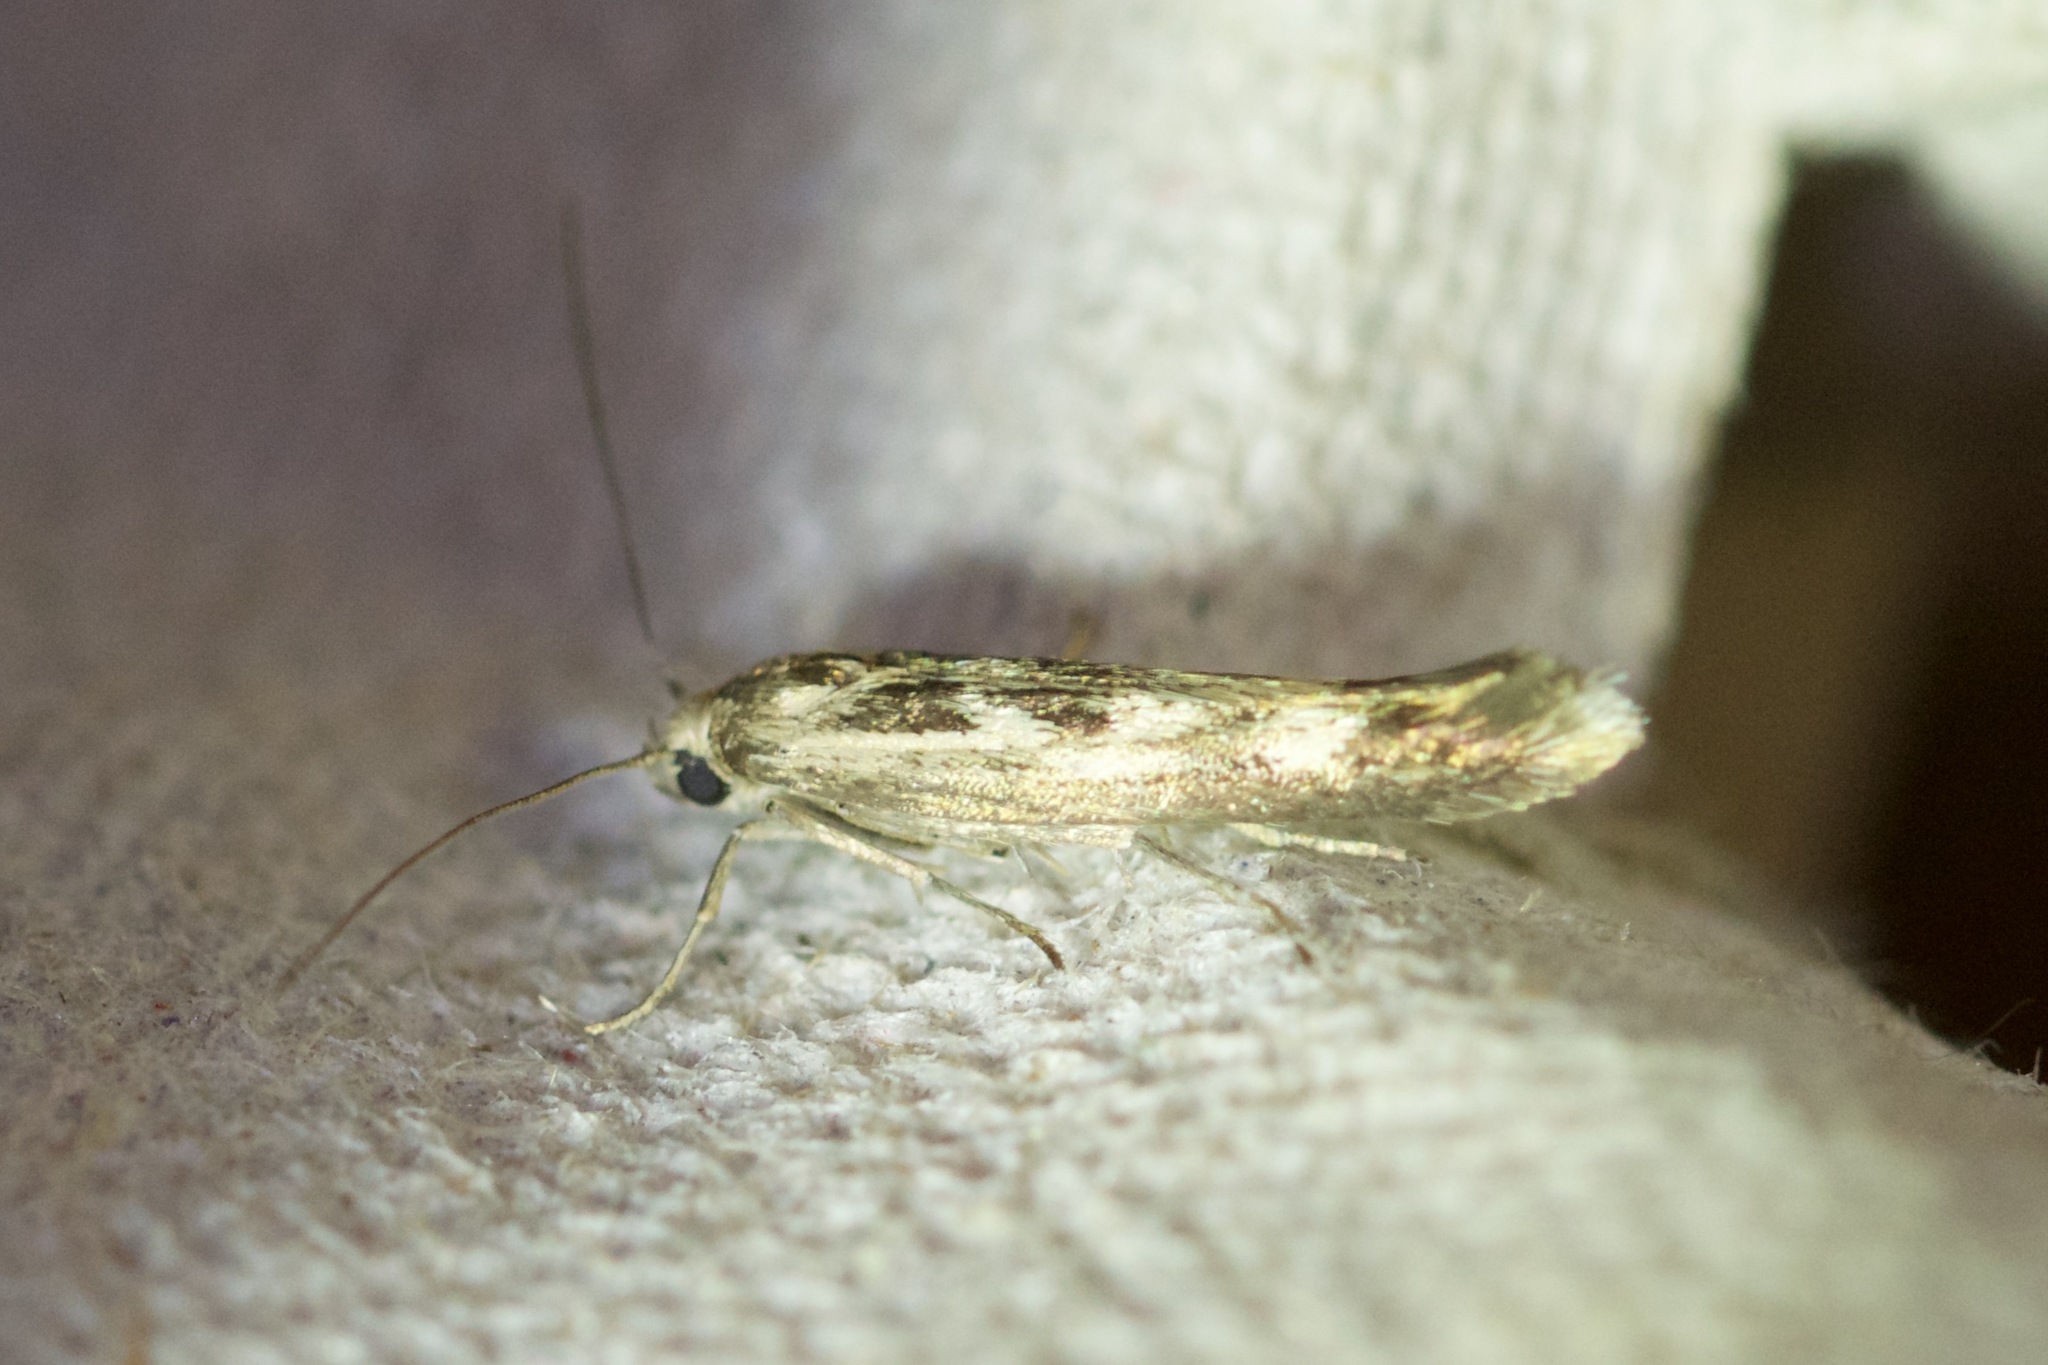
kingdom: Animalia
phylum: Arthropoda
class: Insecta
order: Lepidoptera
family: Scythrididae
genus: Scythris
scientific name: Scythris limbella
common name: Goosefoot owlet
